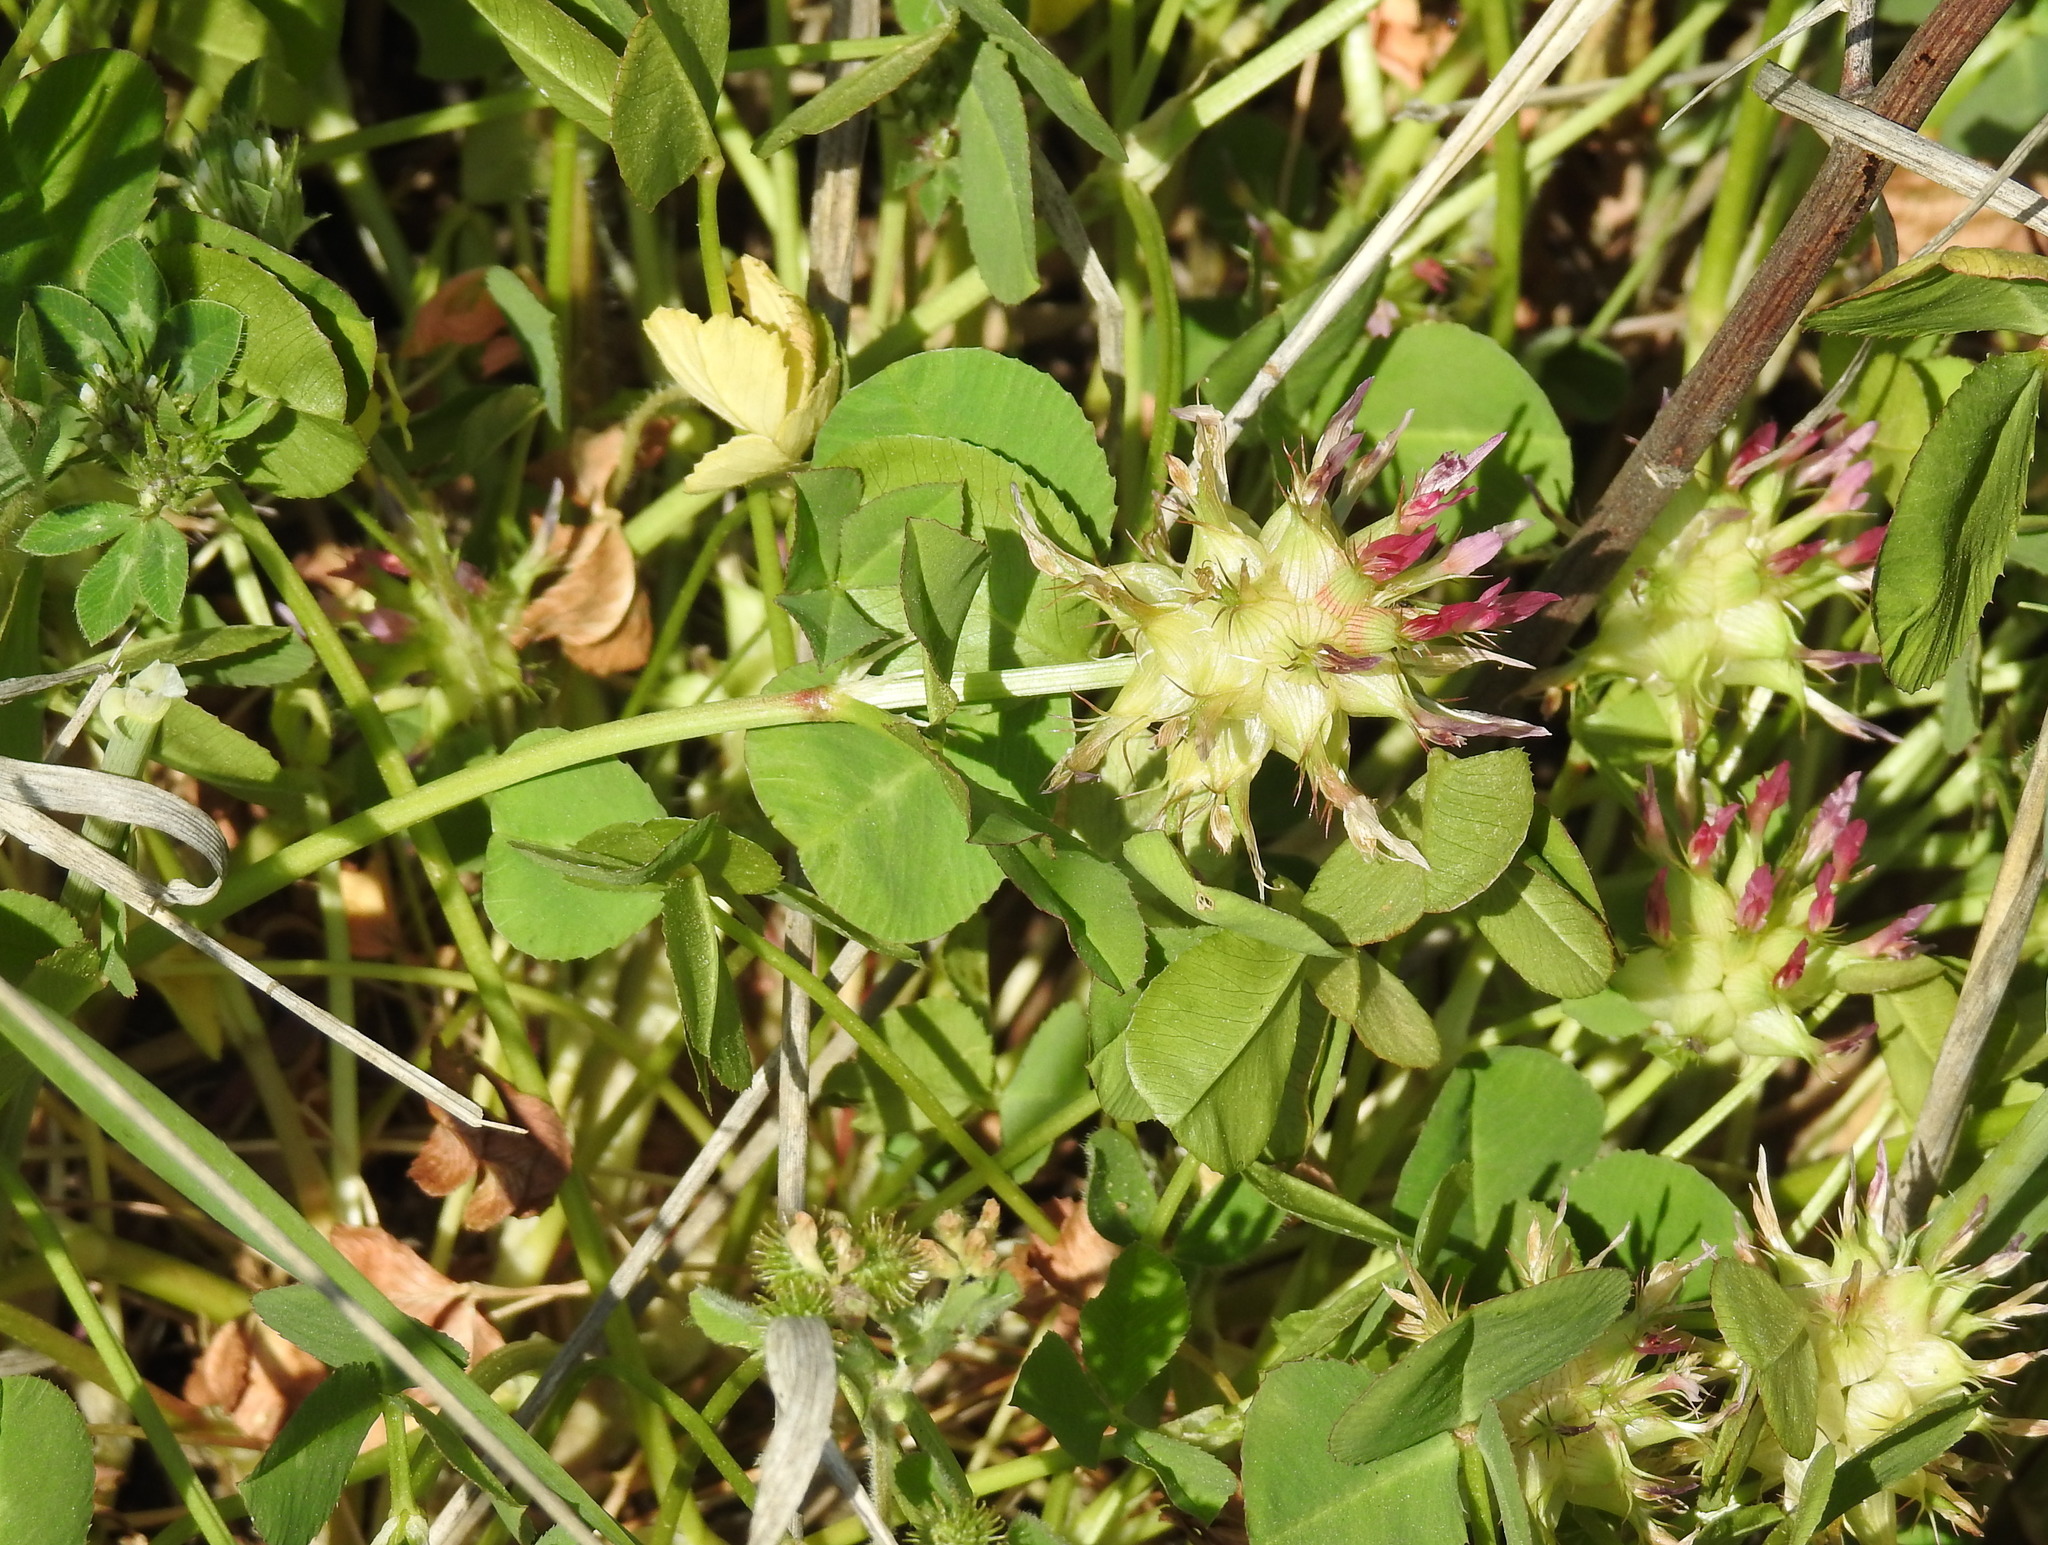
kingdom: Plantae
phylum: Tracheophyta
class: Magnoliopsida
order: Fabales
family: Fabaceae
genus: Trifolium
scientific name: Trifolium spumosum
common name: Mediterranean clover
